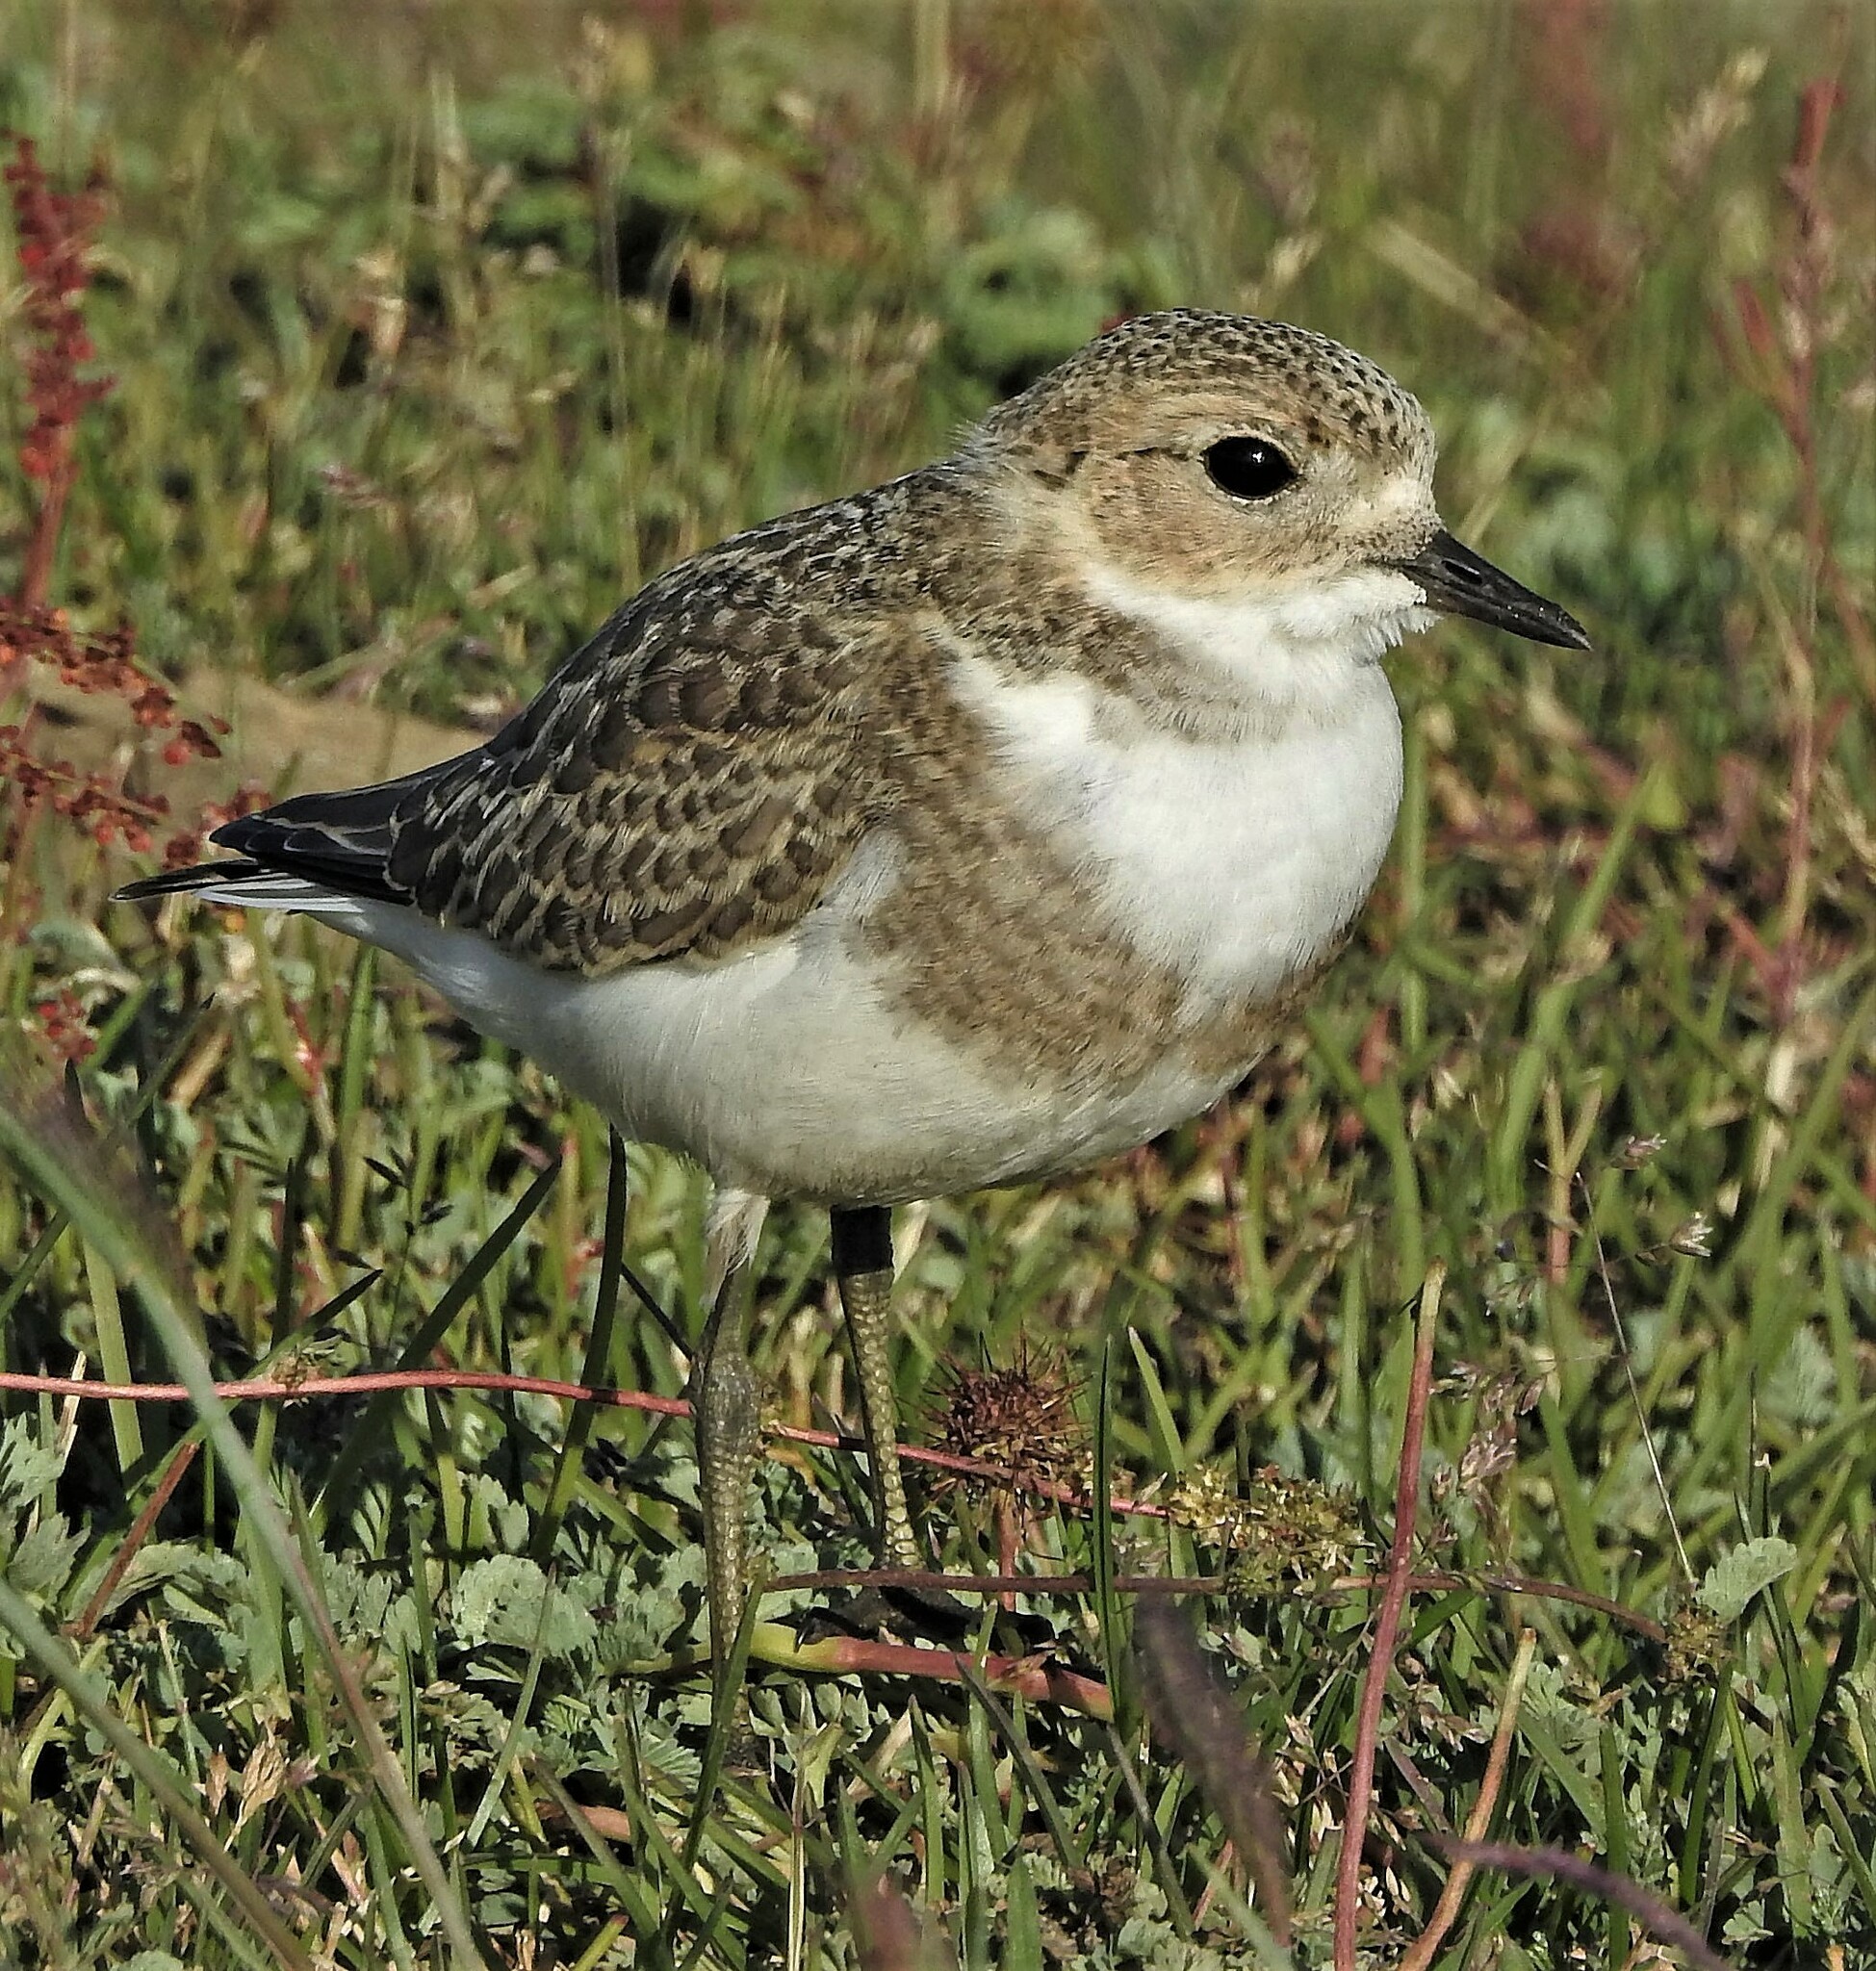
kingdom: Animalia
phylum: Chordata
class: Aves
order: Charadriiformes
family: Charadriidae
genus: Anarhynchus
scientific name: Anarhynchus
